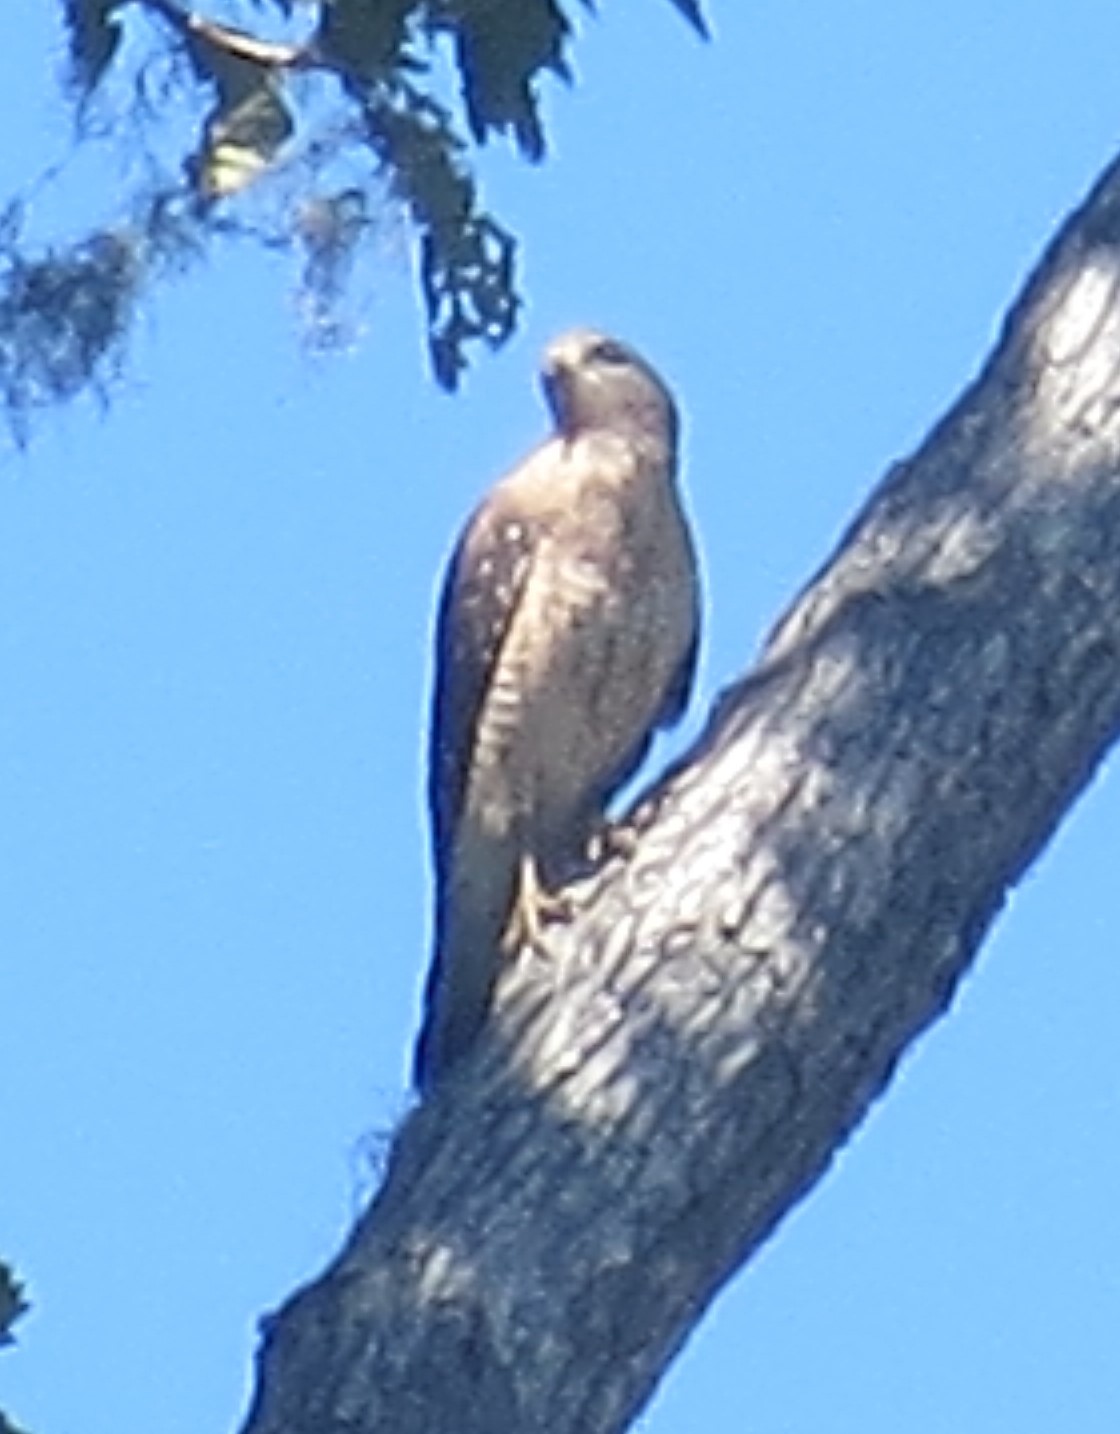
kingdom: Animalia
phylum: Chordata
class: Aves
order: Accipitriformes
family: Accipitridae
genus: Buteo
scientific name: Buteo lineatus
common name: Red-shouldered hawk
